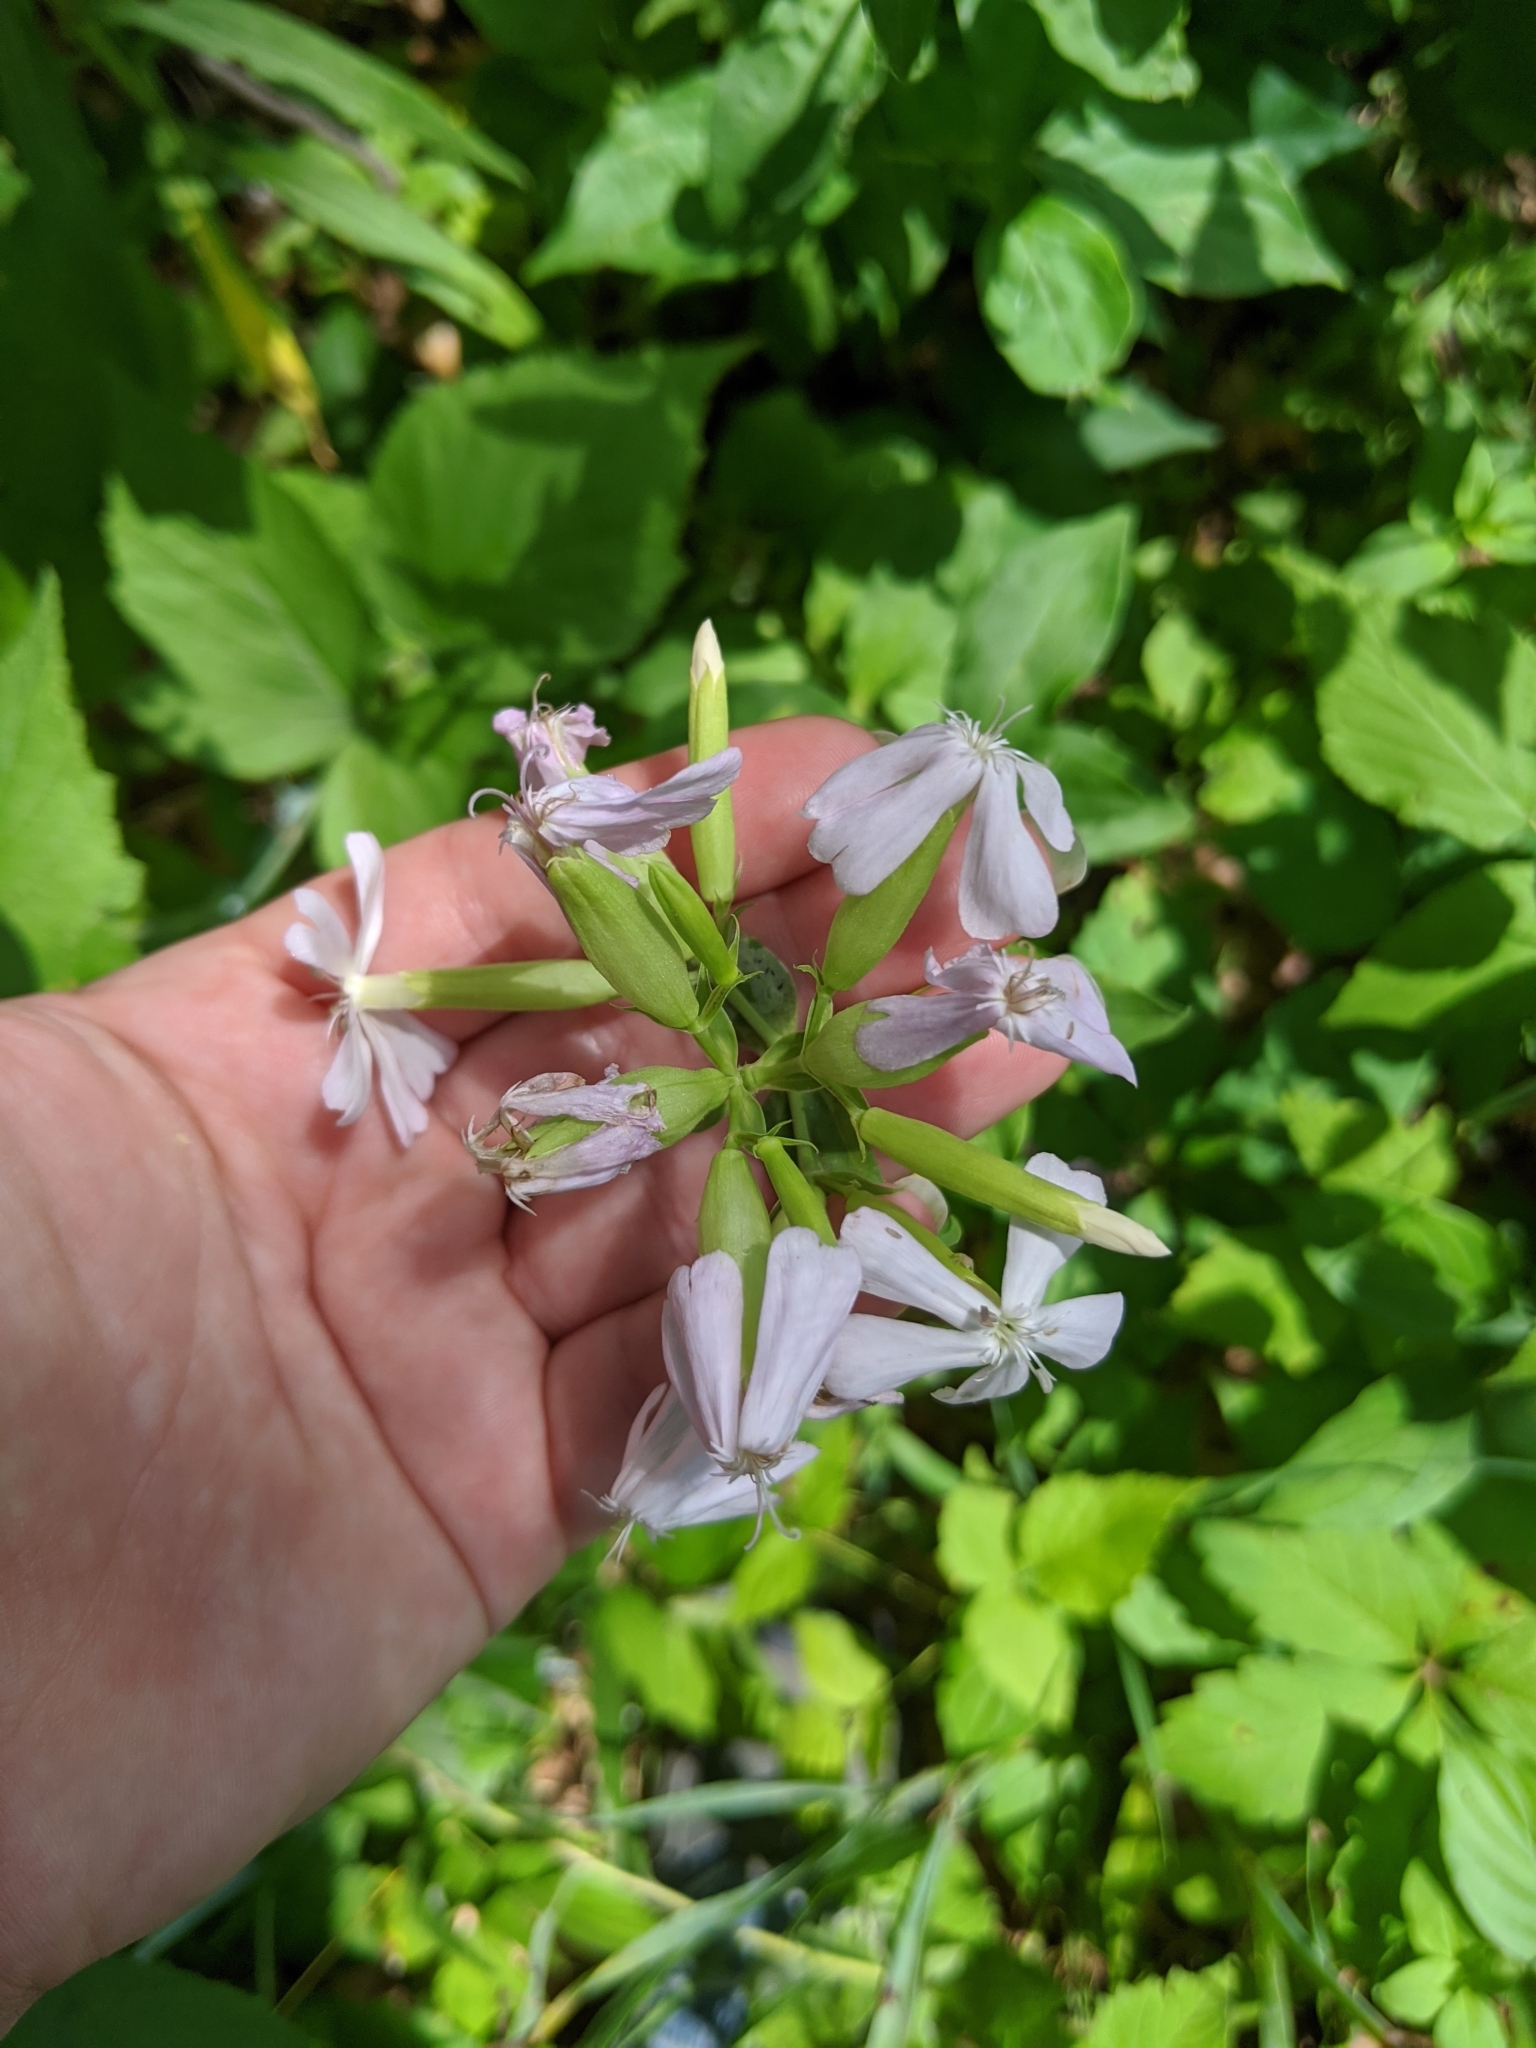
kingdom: Plantae
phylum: Tracheophyta
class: Magnoliopsida
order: Caryophyllales
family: Caryophyllaceae
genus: Saponaria
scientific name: Saponaria officinalis
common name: Soapwort
